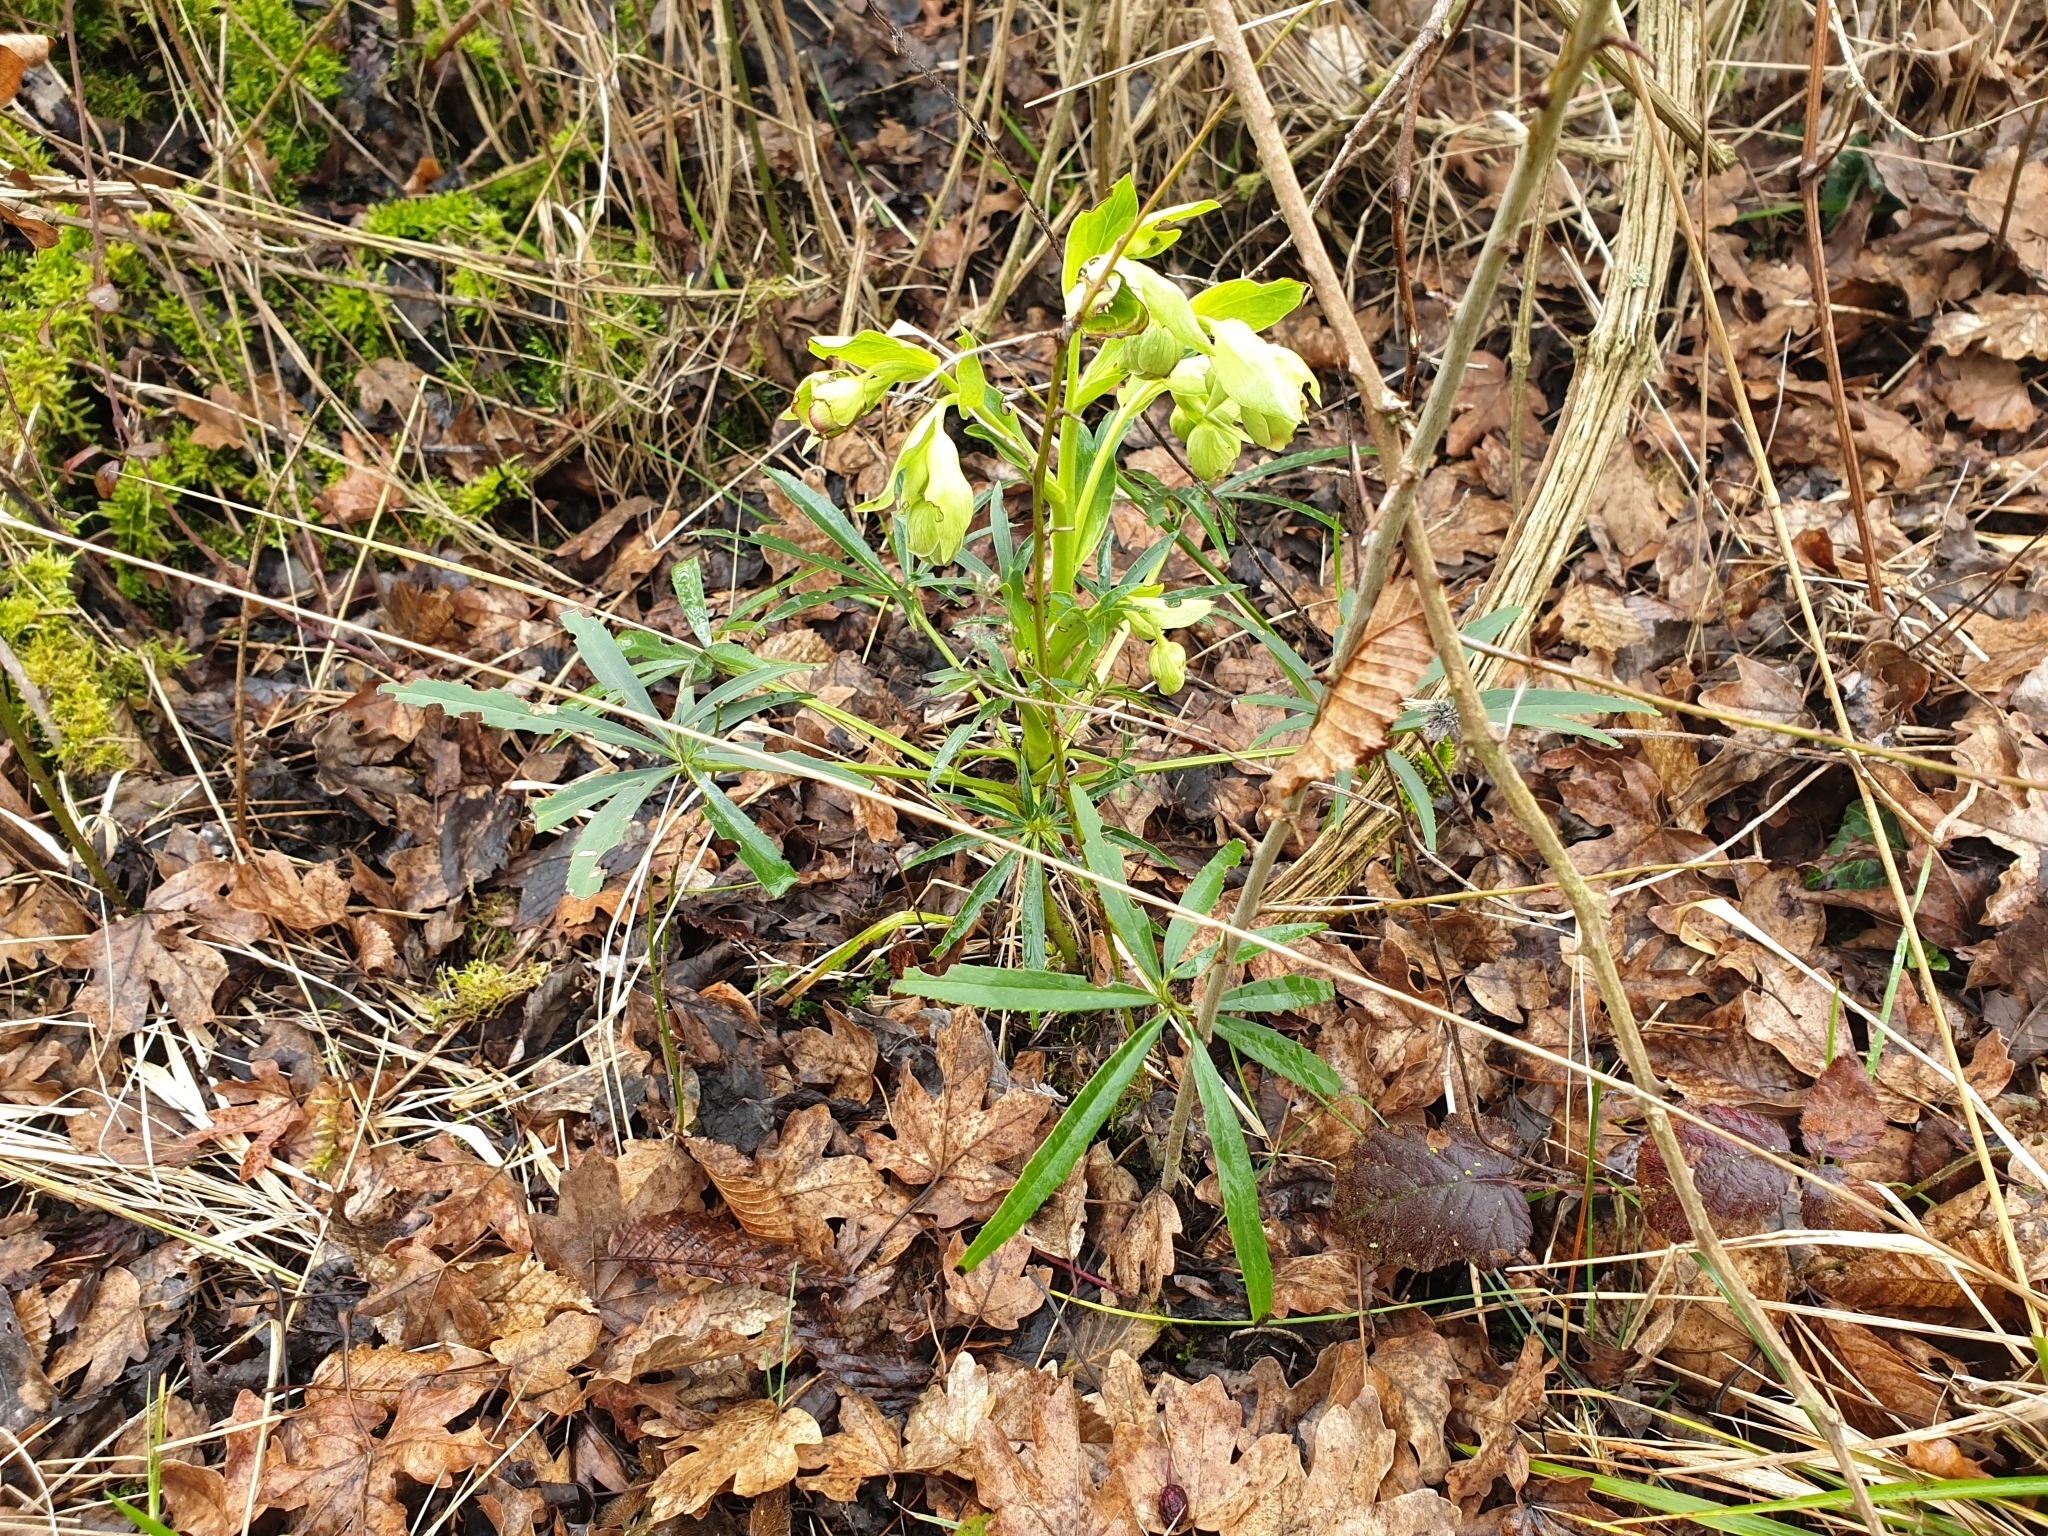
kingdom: Plantae
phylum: Tracheophyta
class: Magnoliopsida
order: Ranunculales
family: Ranunculaceae
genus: Helleborus
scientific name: Helleborus foetidus
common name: Stinking hellebore
